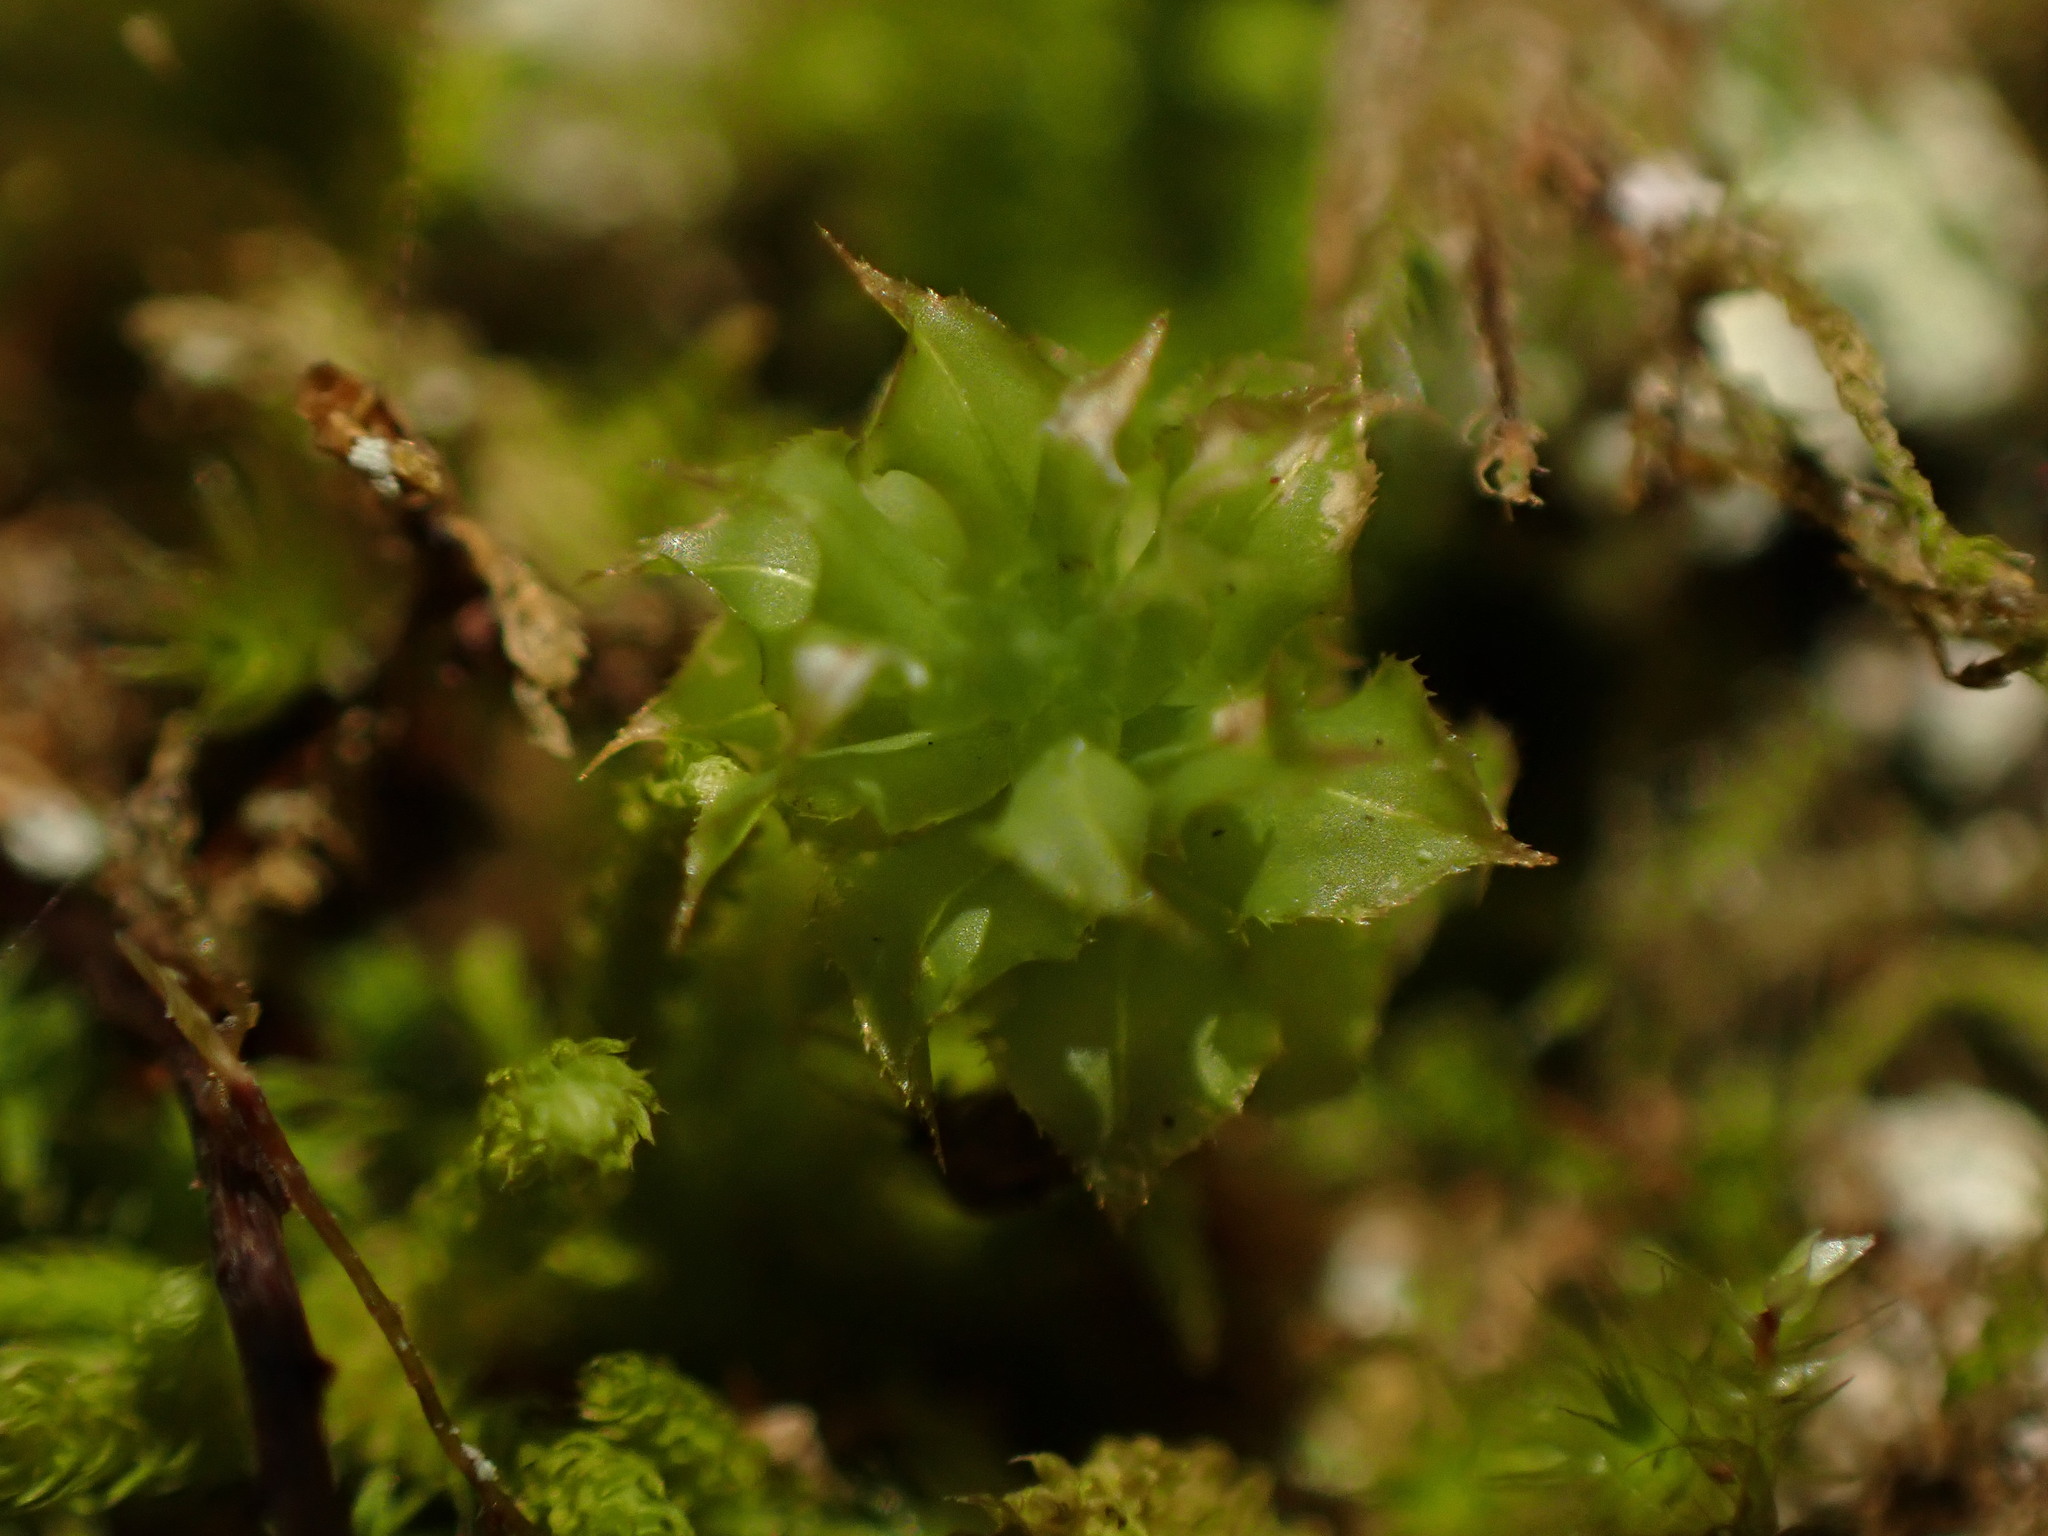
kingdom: Plantae
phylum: Bryophyta
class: Bryopsida
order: Bryales
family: Mniaceae
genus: Plagiomnium
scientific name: Plagiomnium venustum
